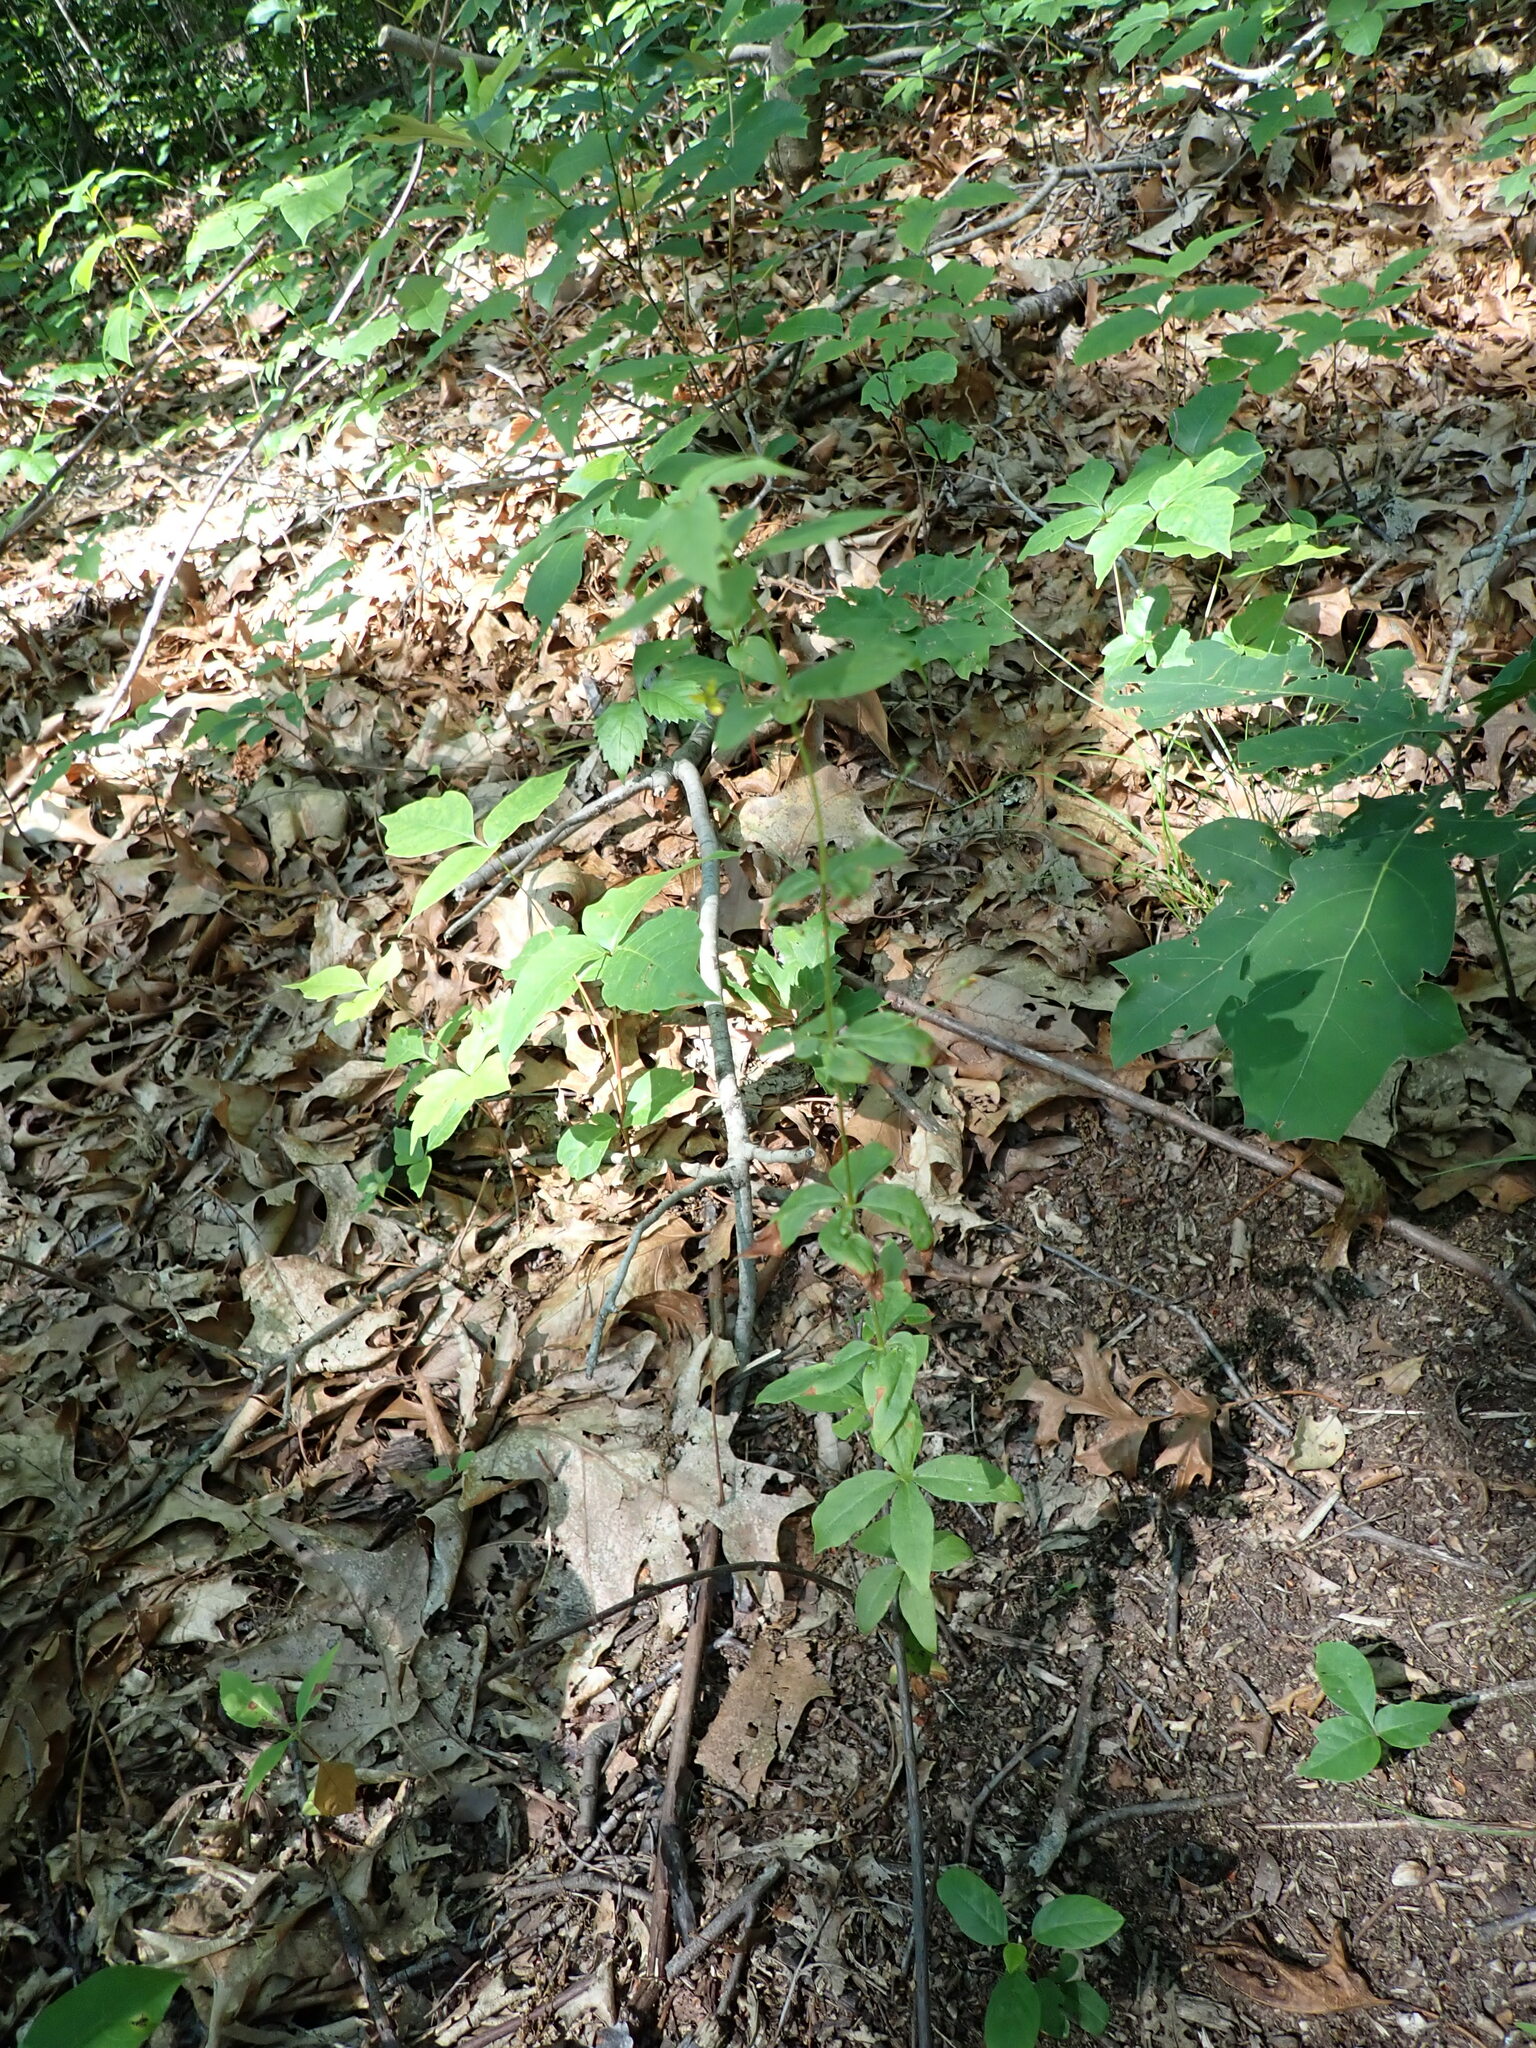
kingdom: Plantae
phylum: Tracheophyta
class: Magnoliopsida
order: Ericales
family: Primulaceae
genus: Lysimachia
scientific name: Lysimachia quadrifolia
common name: Whorled loosestrife
